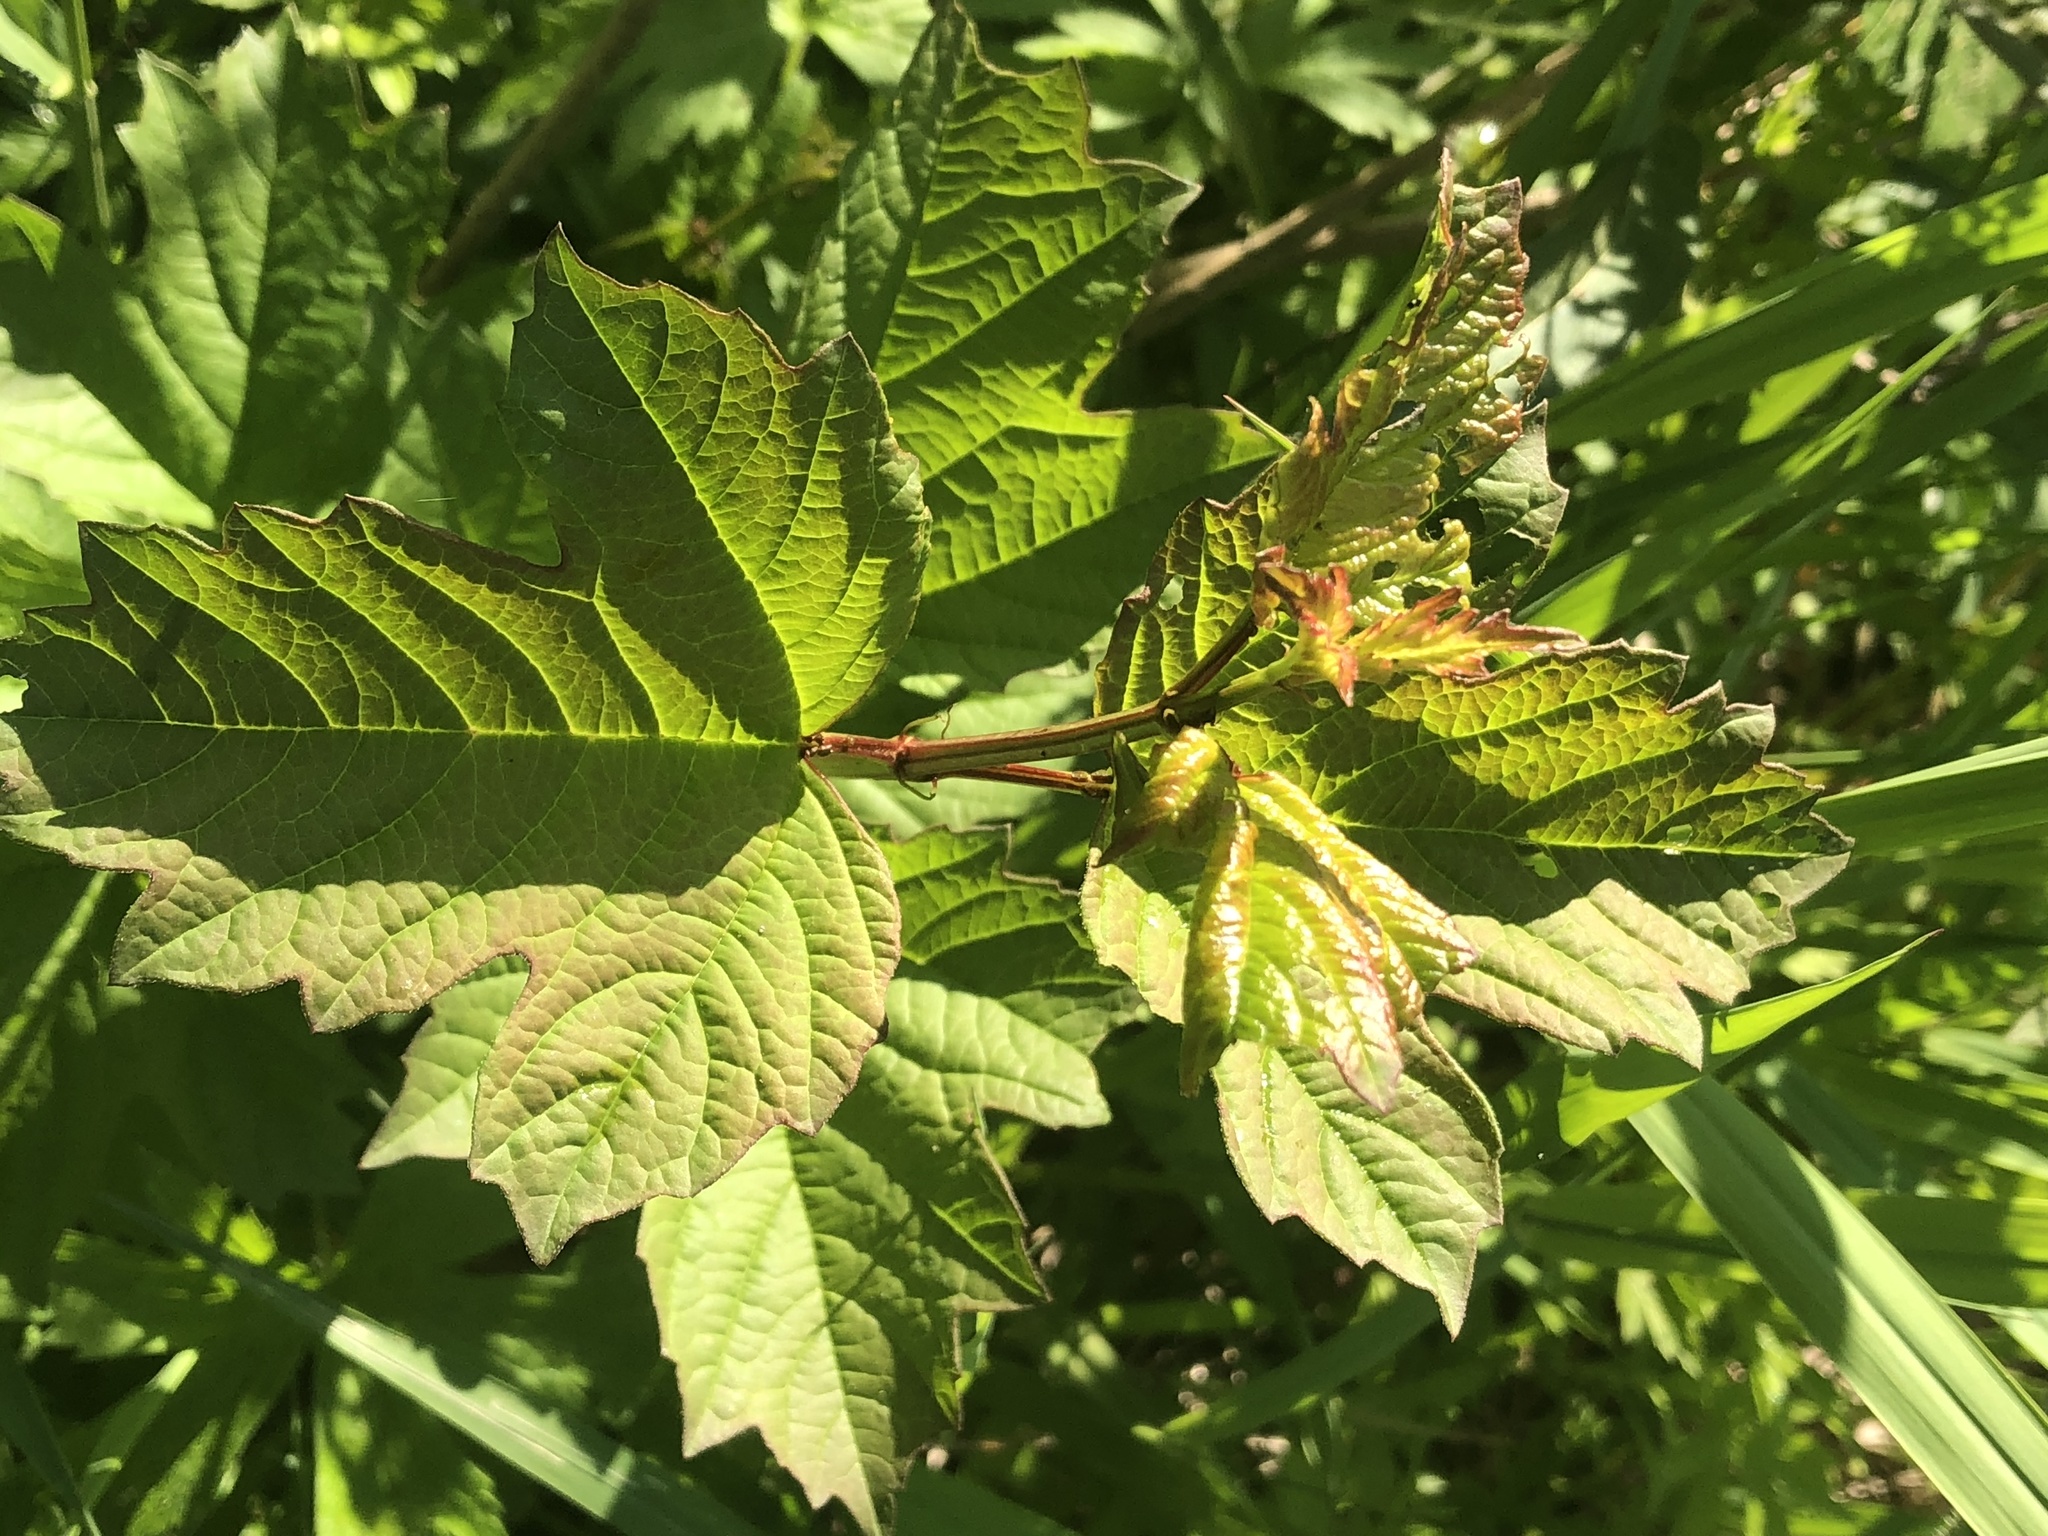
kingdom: Plantae
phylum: Tracheophyta
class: Magnoliopsida
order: Dipsacales
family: Viburnaceae
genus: Viburnum
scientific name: Viburnum opulus
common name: Guelder-rose
